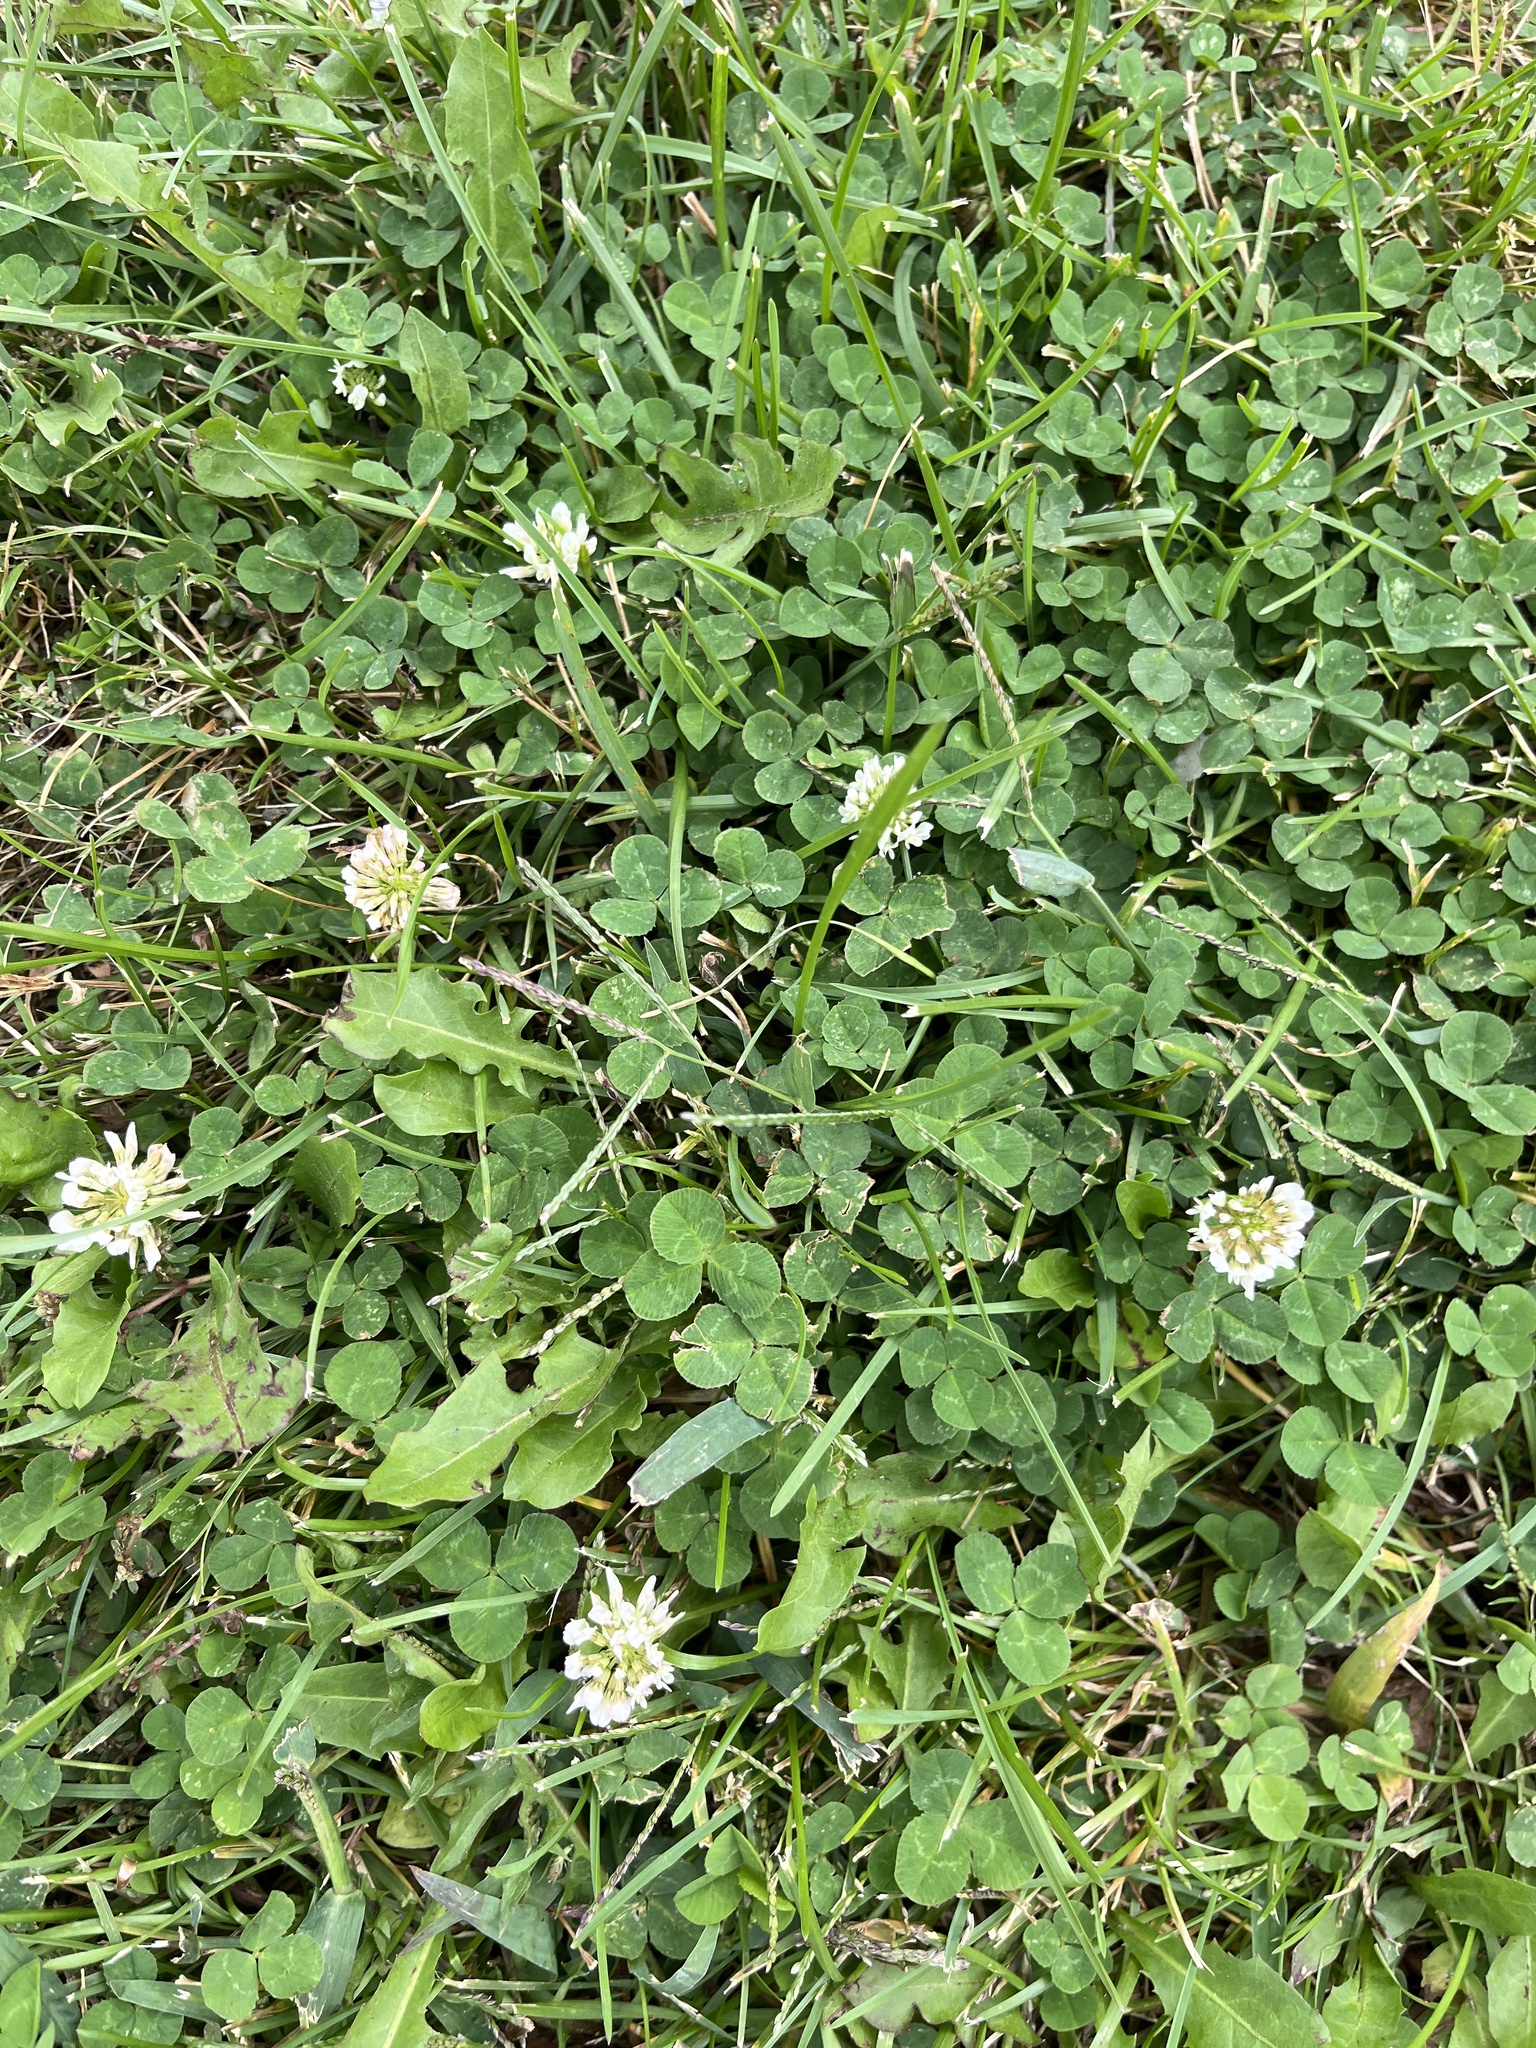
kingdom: Plantae
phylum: Tracheophyta
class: Magnoliopsida
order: Fabales
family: Fabaceae
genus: Trifolium
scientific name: Trifolium repens
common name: White clover
